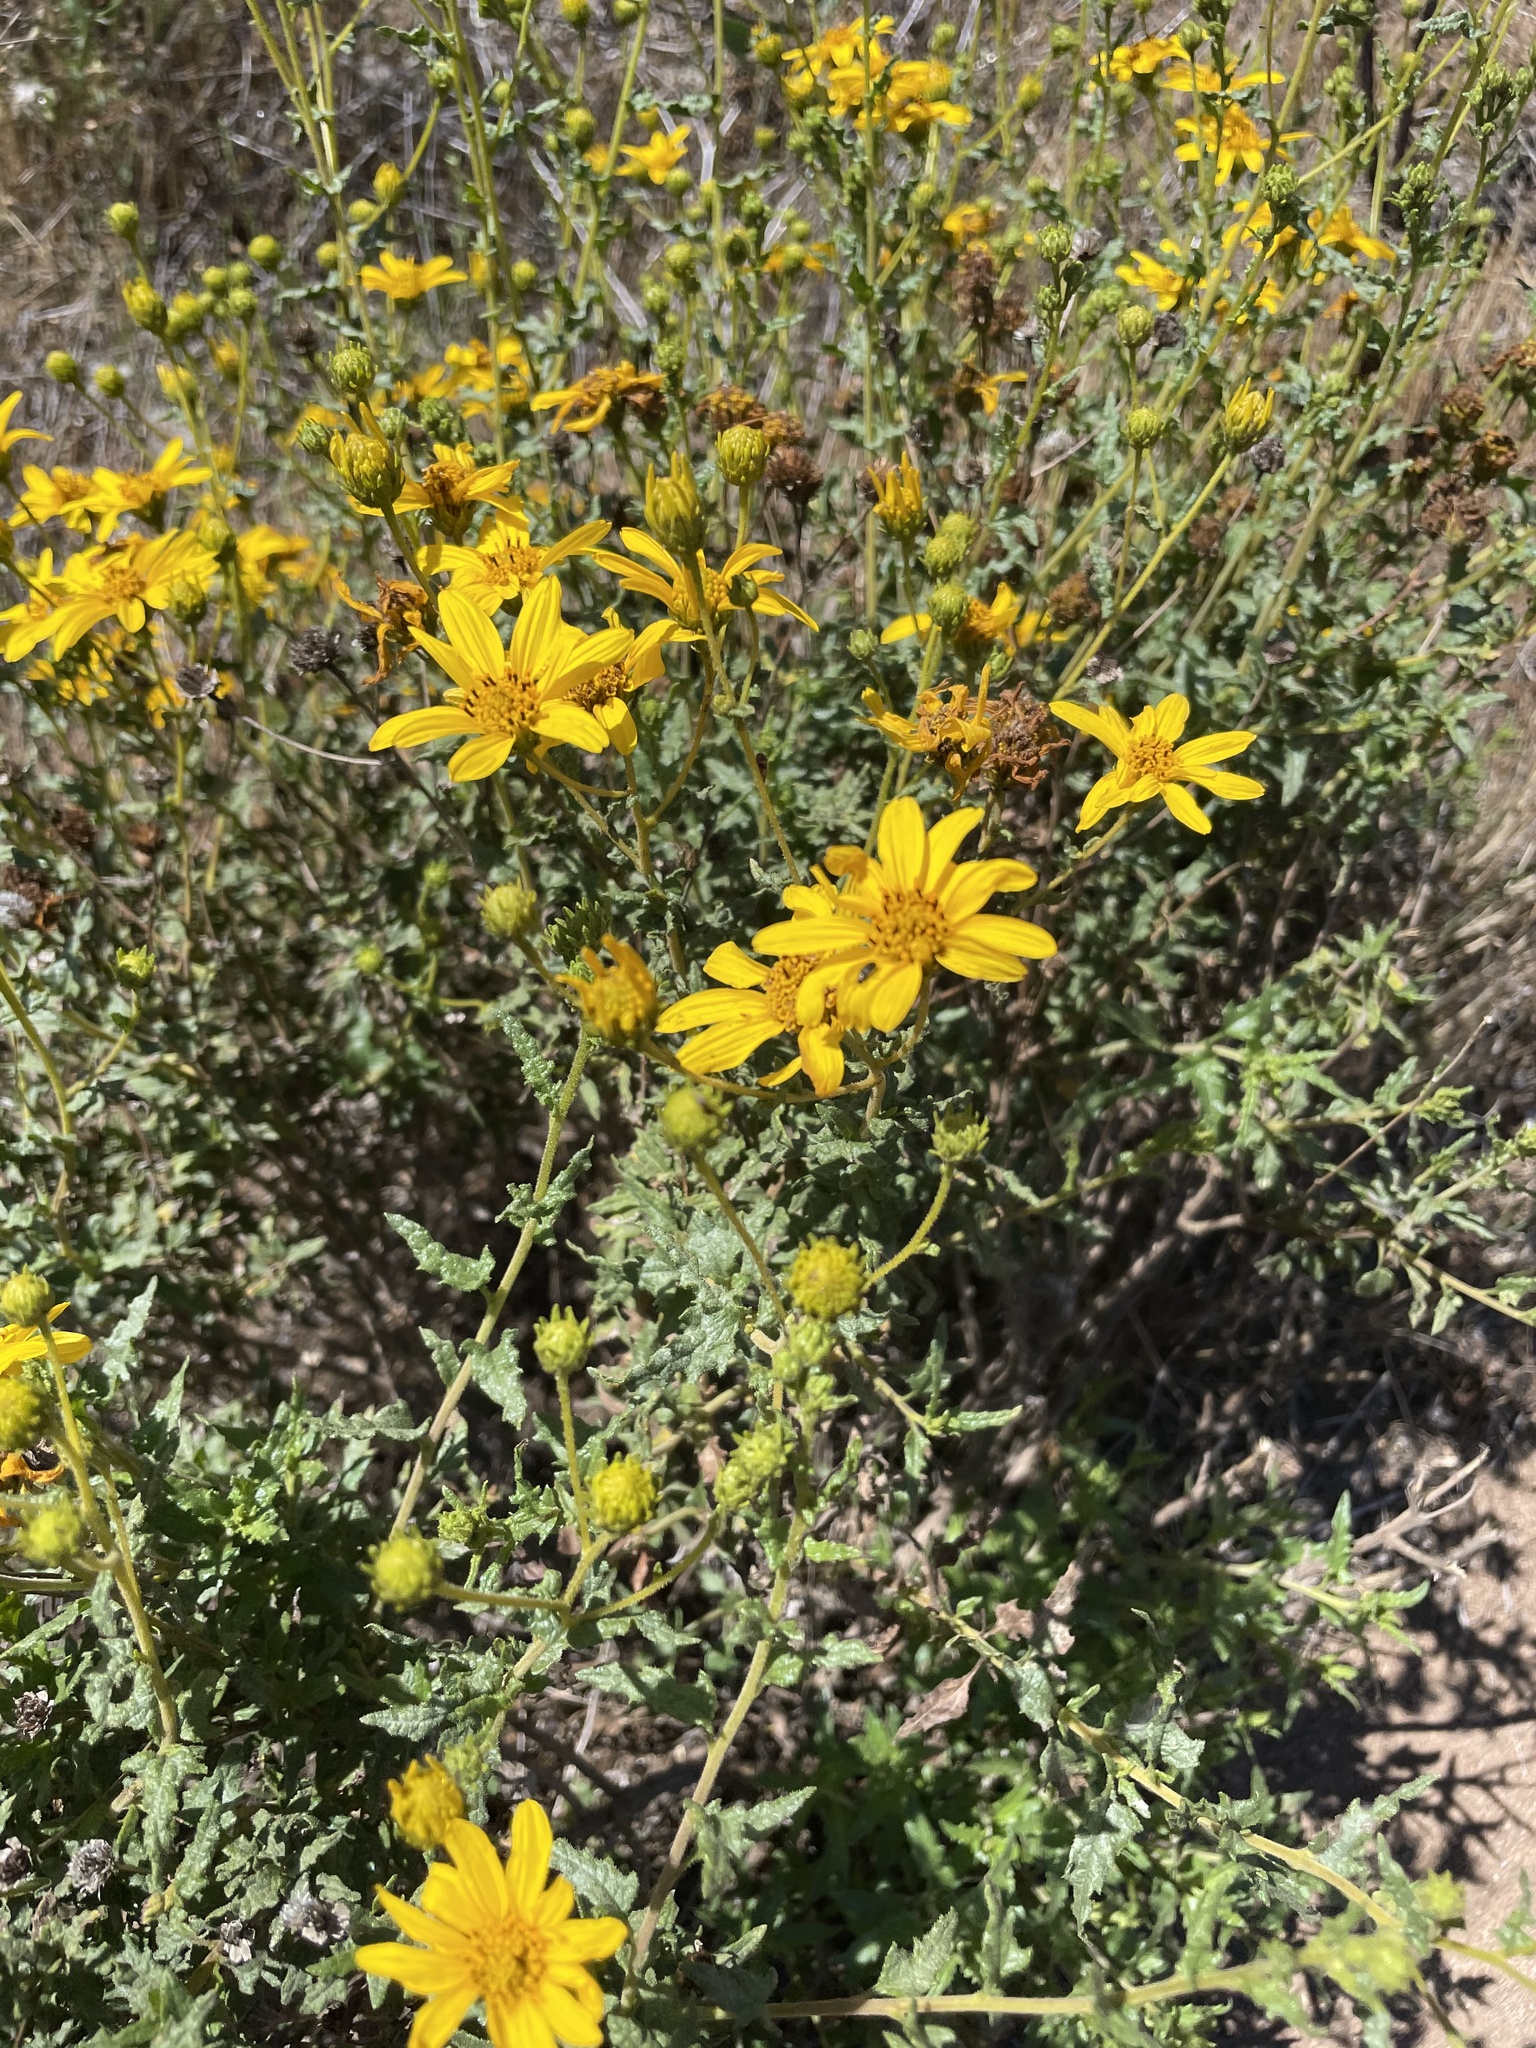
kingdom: Plantae
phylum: Tracheophyta
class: Magnoliopsida
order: Asterales
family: Asteraceae
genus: Bahiopsis
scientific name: Bahiopsis laciniata
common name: San diego county viguiera
